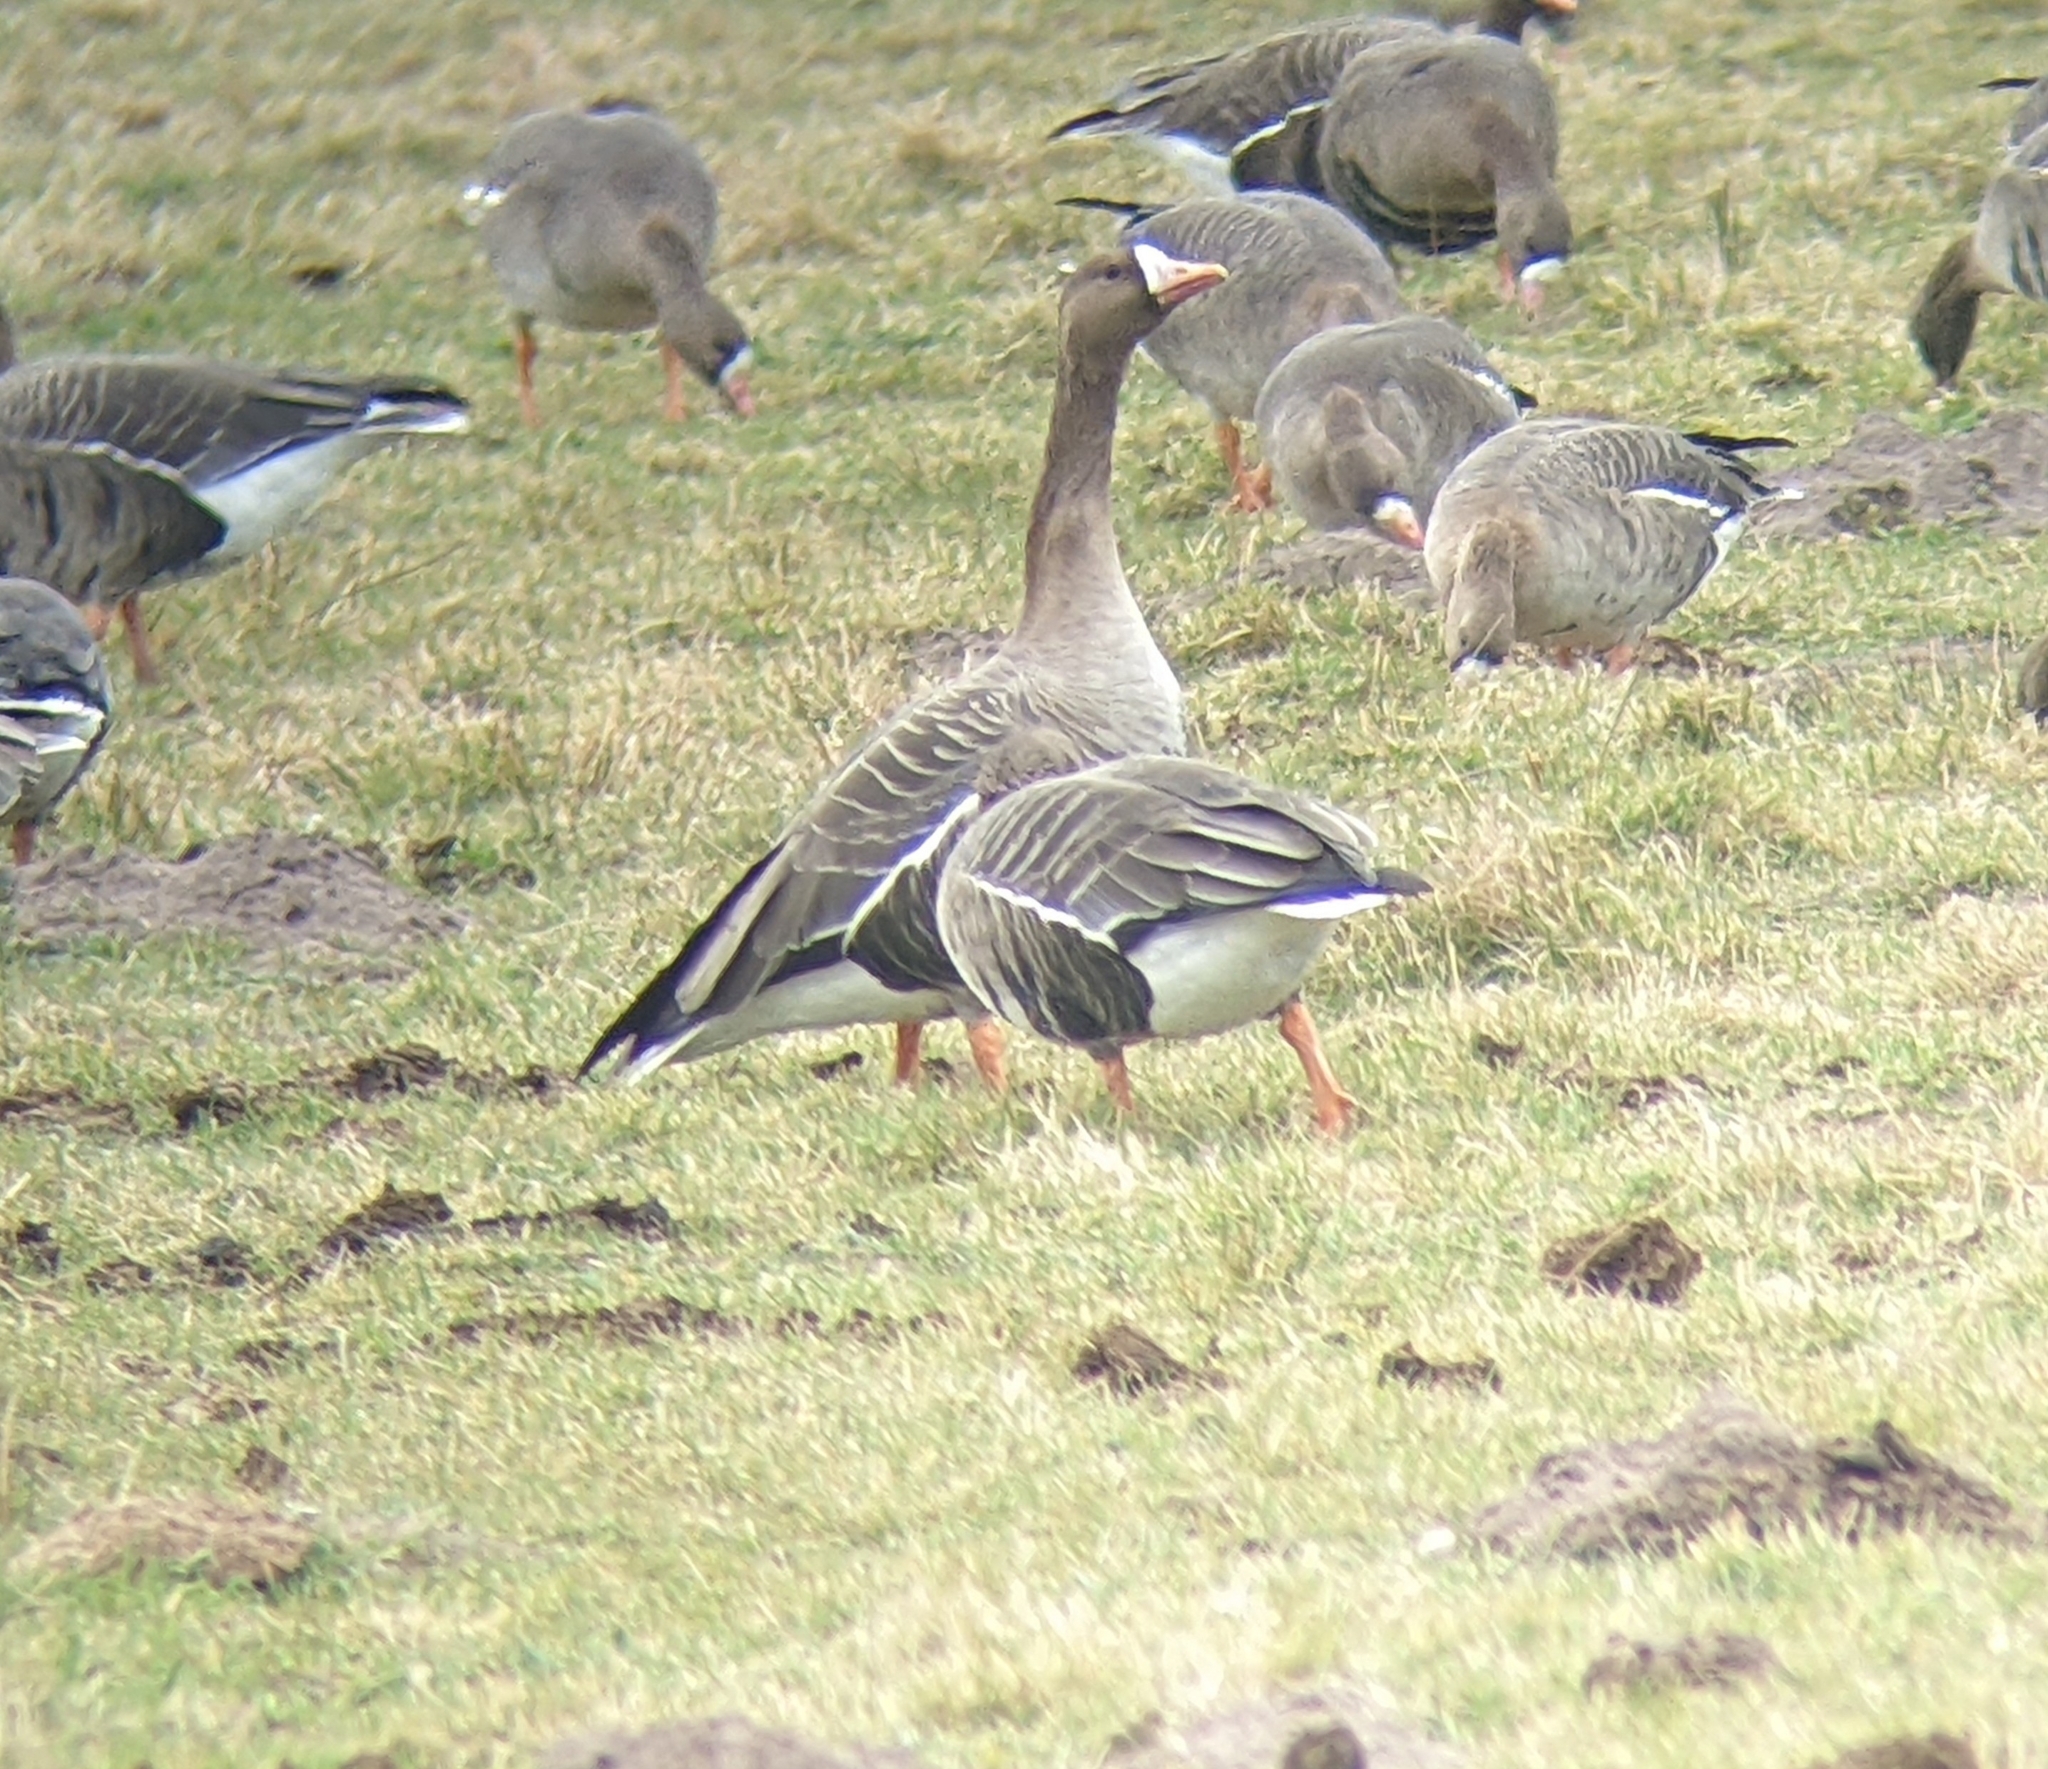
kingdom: Animalia
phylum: Chordata
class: Aves
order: Anseriformes
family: Anatidae
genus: Anser
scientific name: Anser albifrons
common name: Greater white-fronted goose
